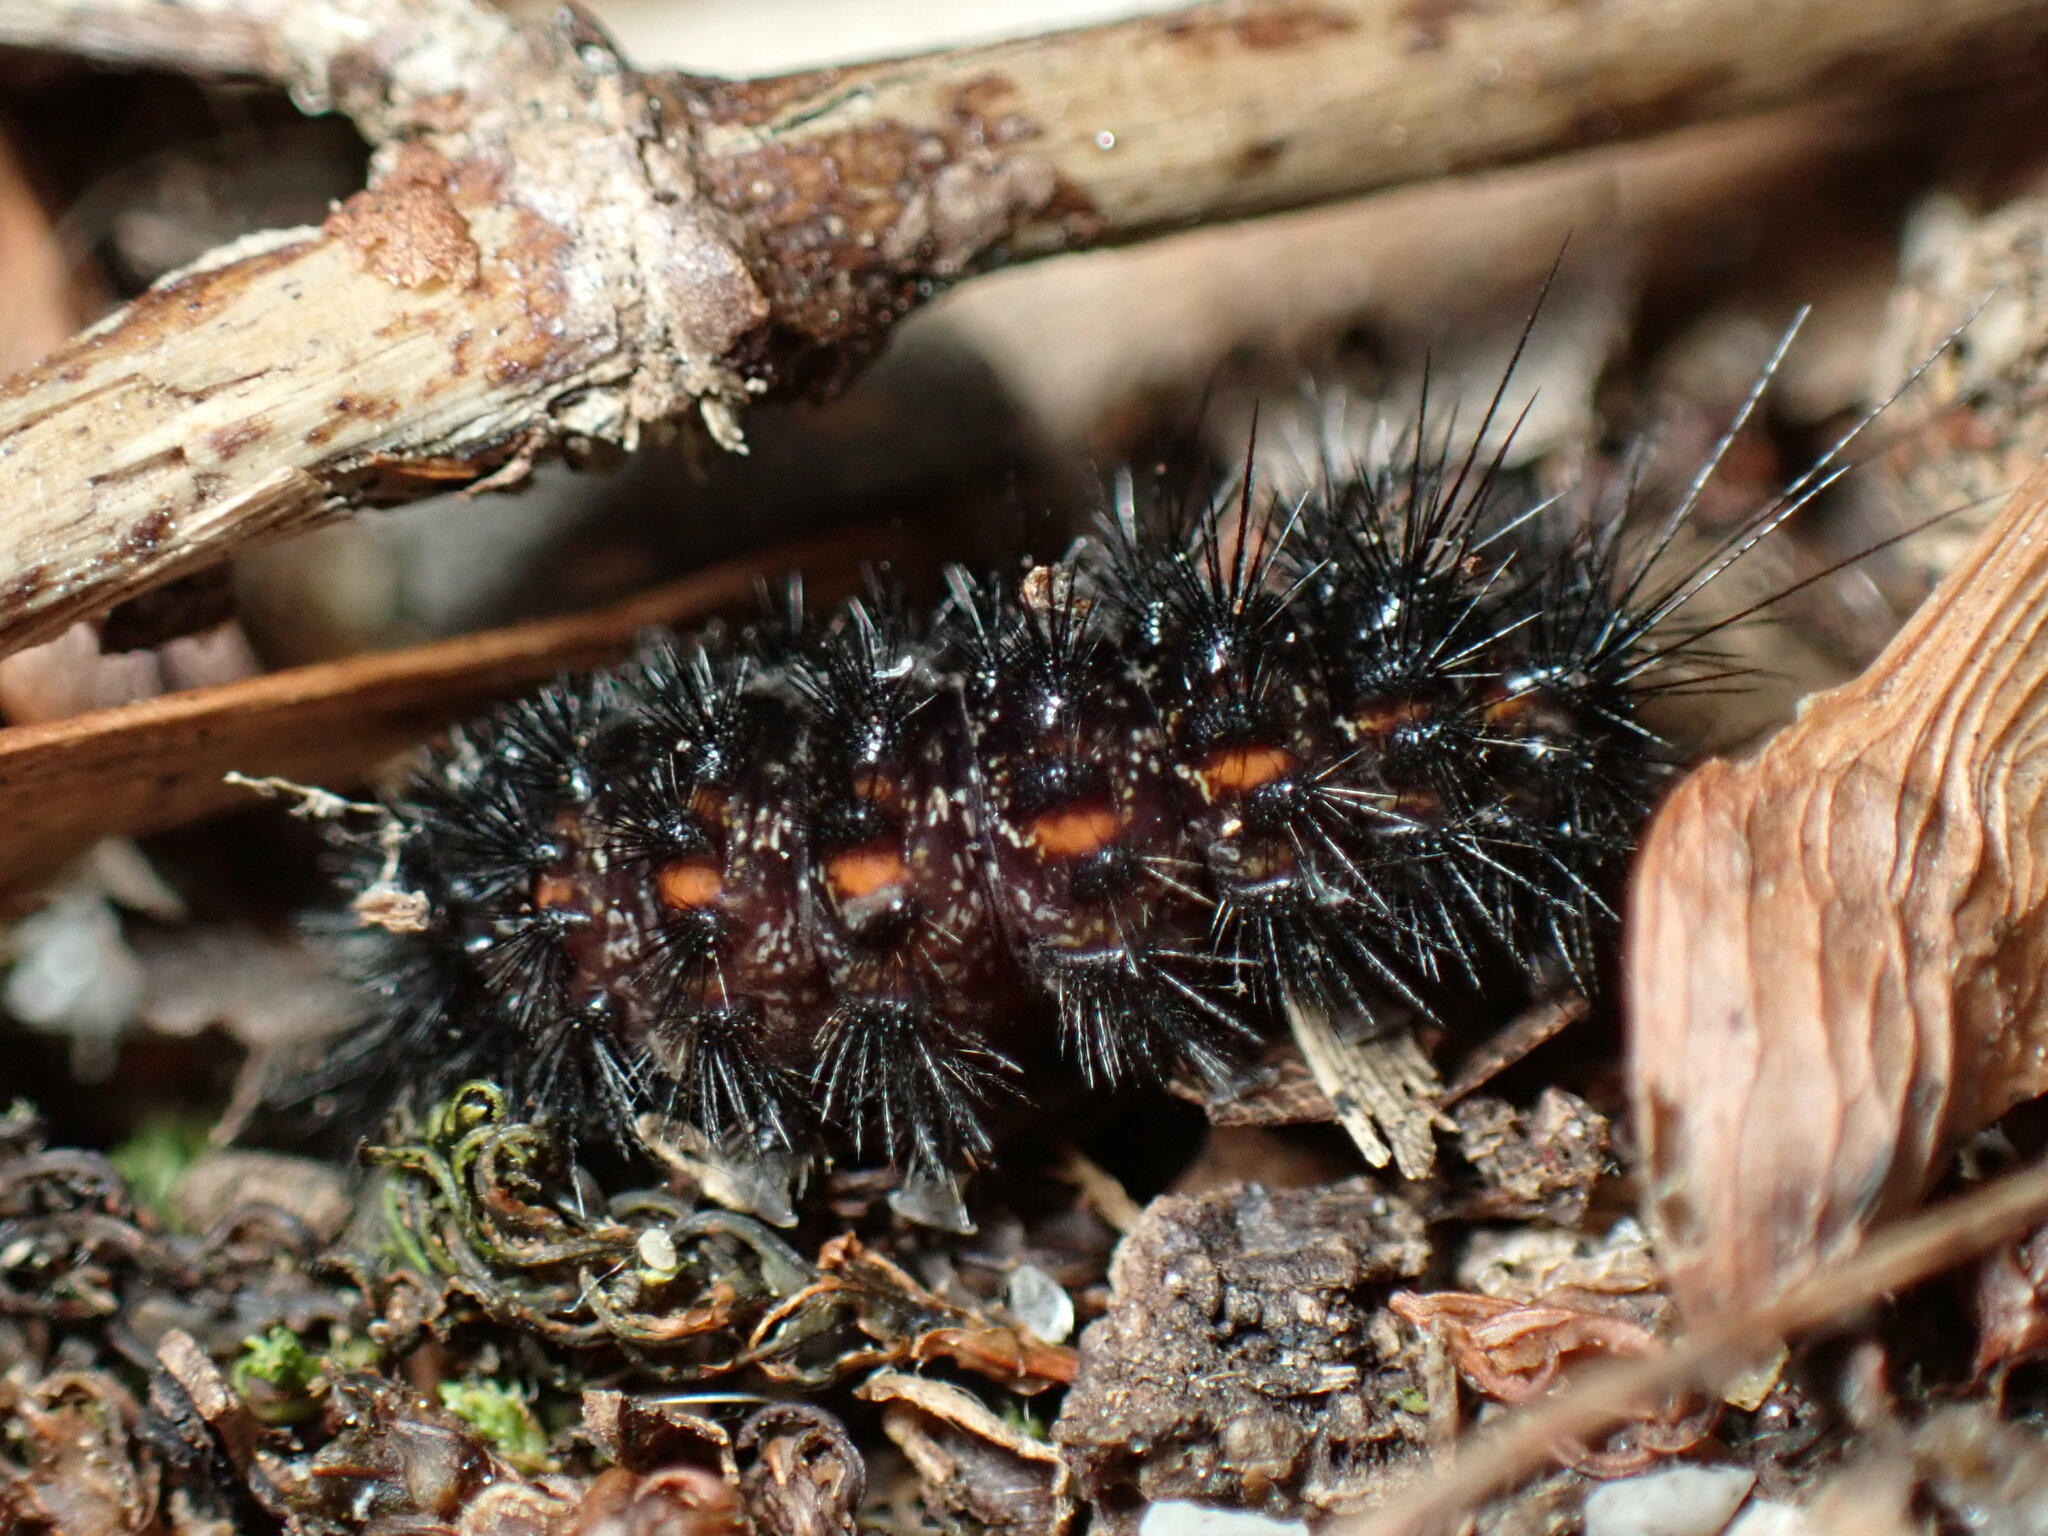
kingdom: Animalia
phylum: Arthropoda
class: Insecta
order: Lepidoptera
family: Erebidae
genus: Spilosoma
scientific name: Spilosoma congrua
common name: Agreeable tiger moth
